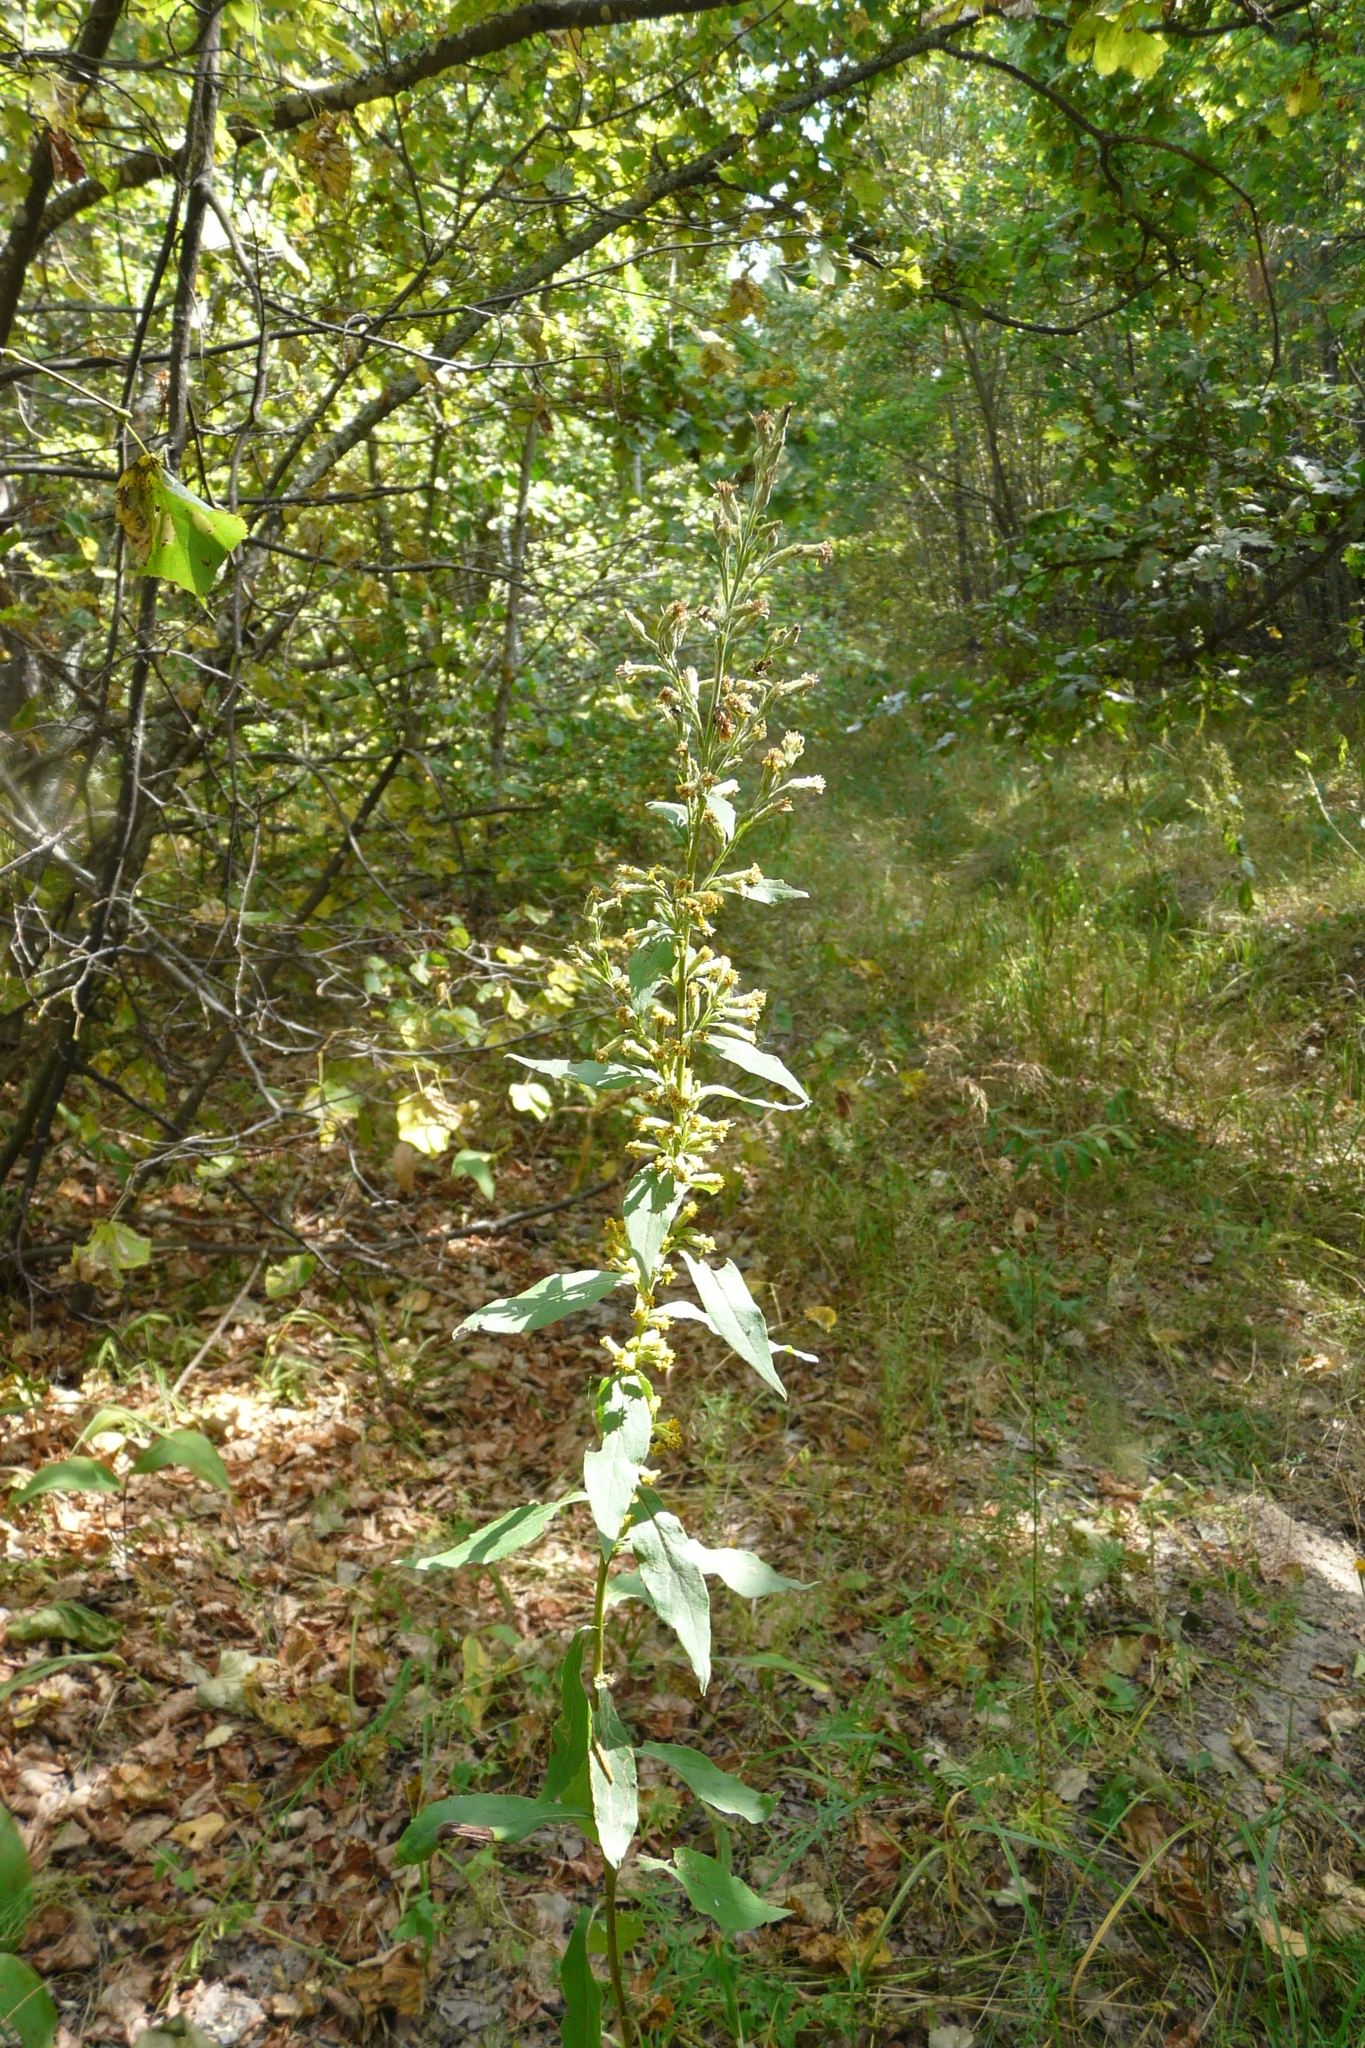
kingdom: Plantae
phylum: Tracheophyta
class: Magnoliopsida
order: Asterales
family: Asteraceae
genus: Solidago
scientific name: Solidago virgaurea
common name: Goldenrod
